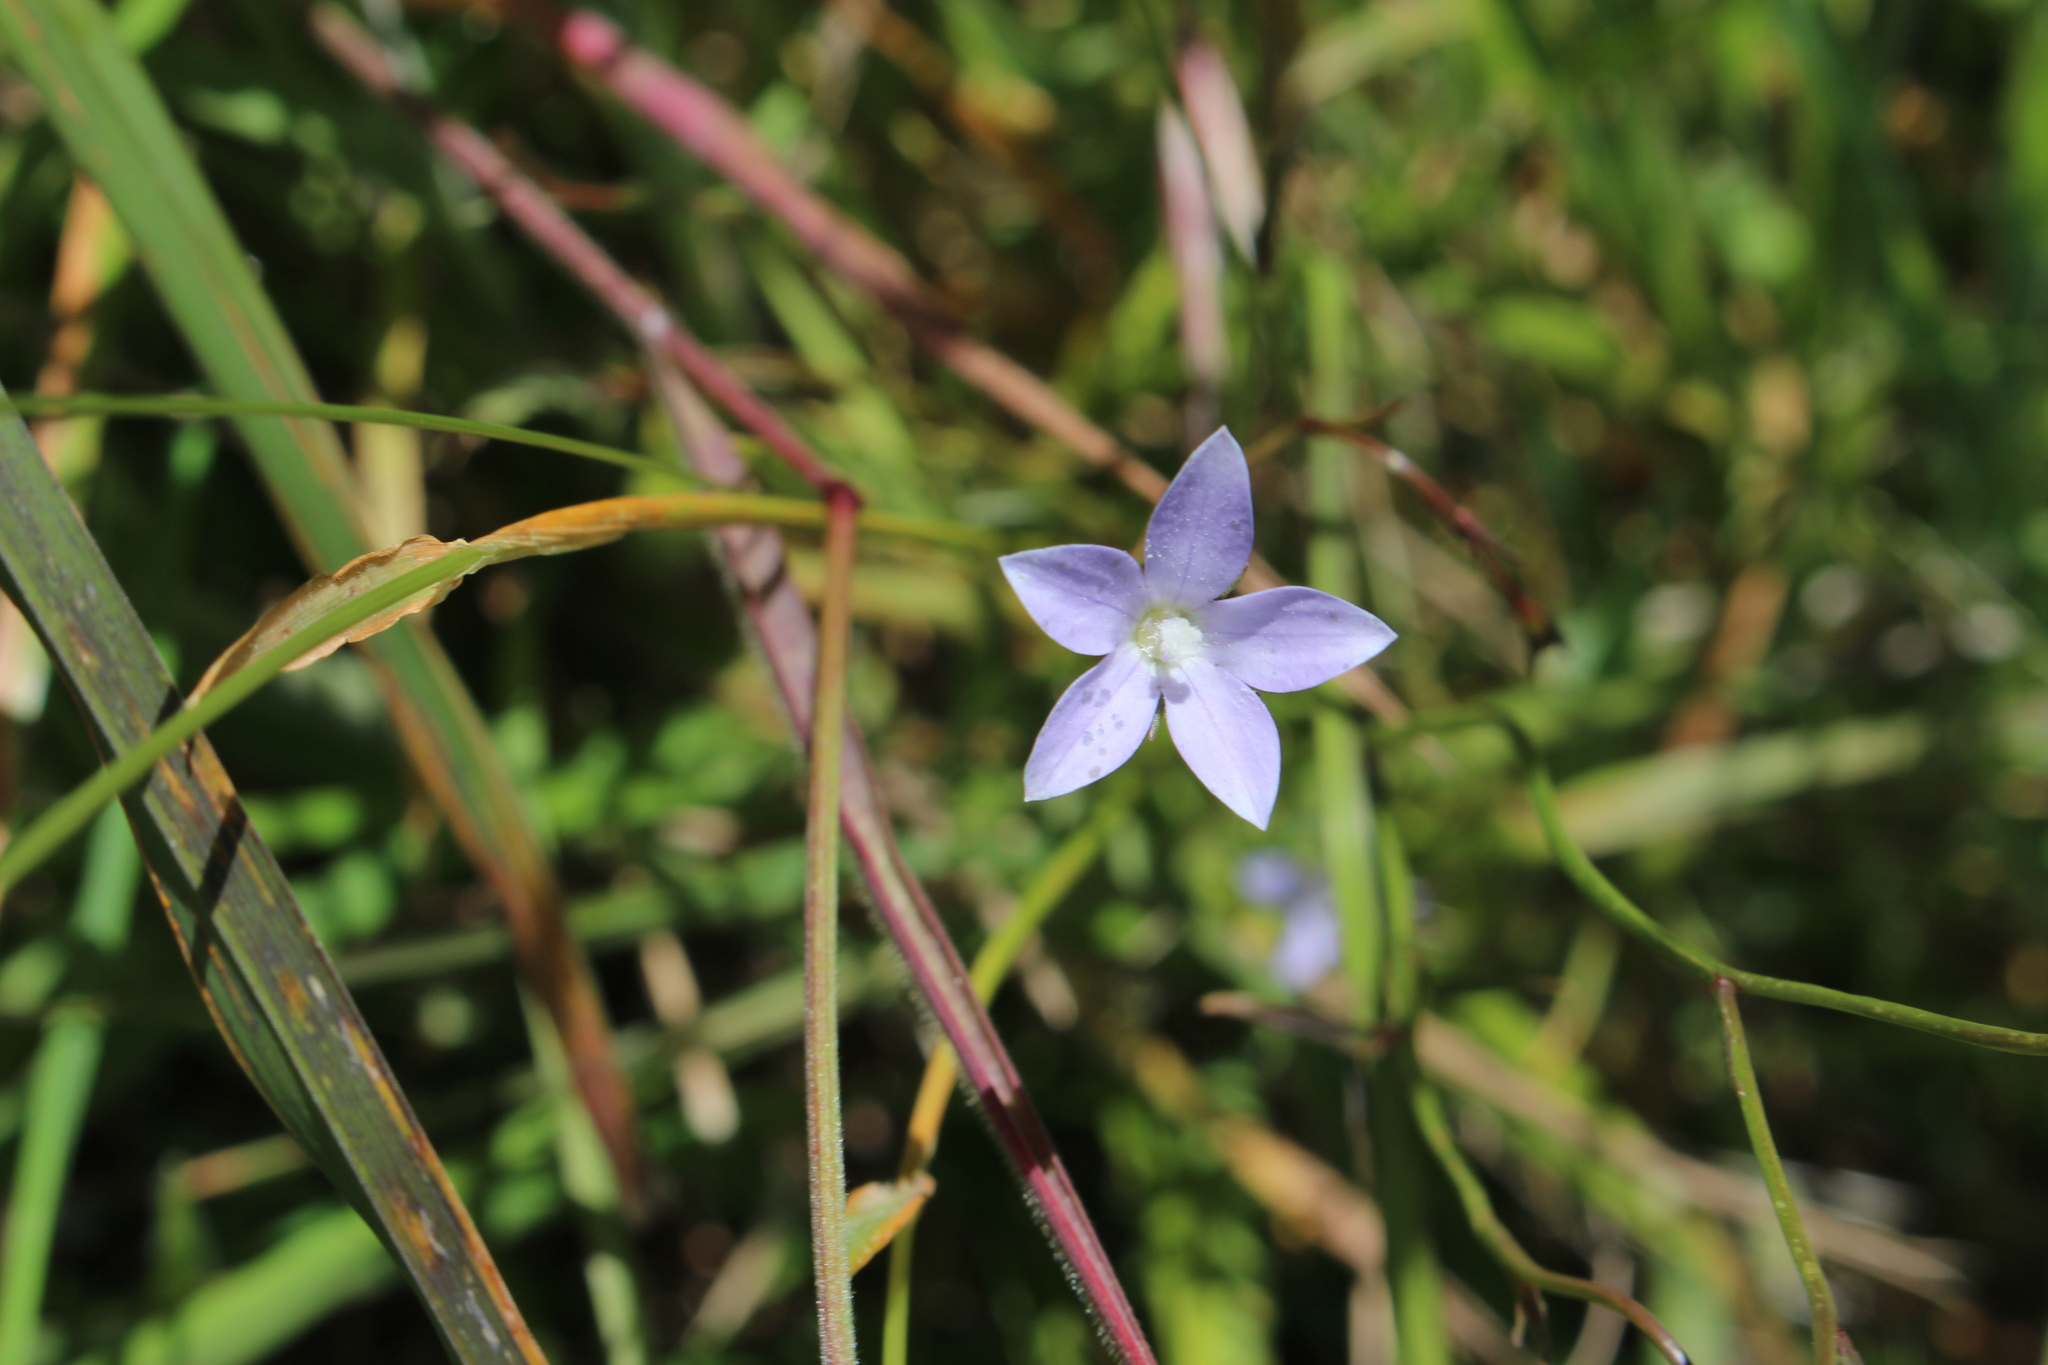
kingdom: Plantae
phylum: Tracheophyta
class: Magnoliopsida
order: Asterales
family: Campanulaceae
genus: Wahlenbergia
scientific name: Wahlenbergia rupestris
